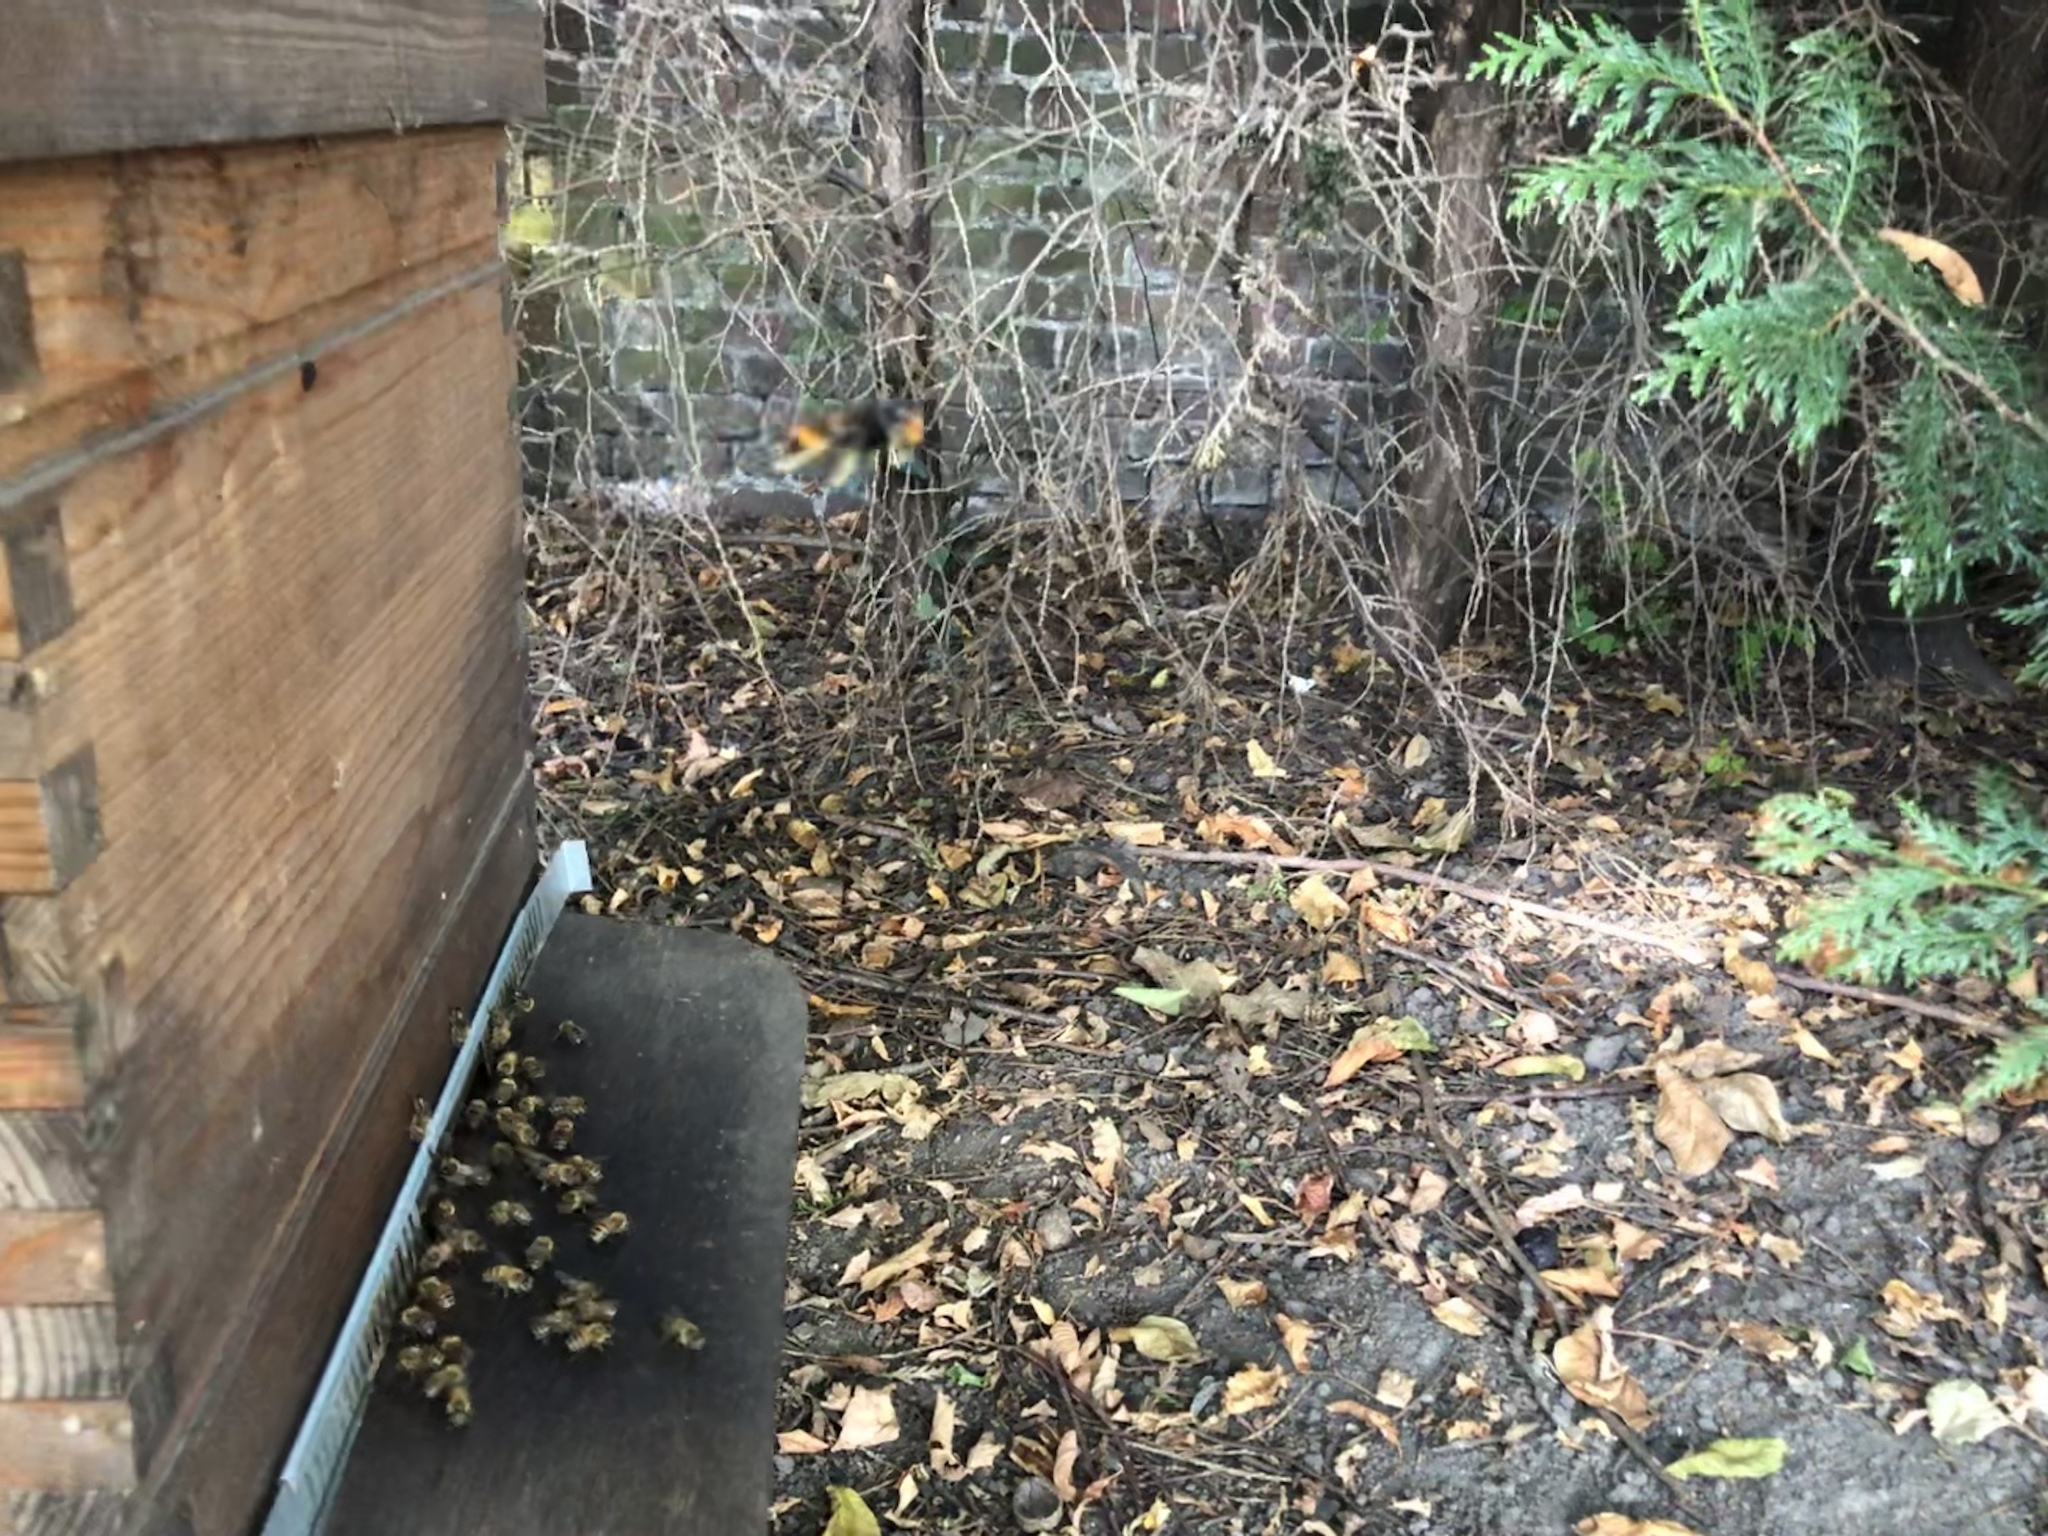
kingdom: Animalia
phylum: Arthropoda
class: Insecta
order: Hymenoptera
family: Vespidae
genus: Vespa
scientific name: Vespa velutina
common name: Asian hornet
